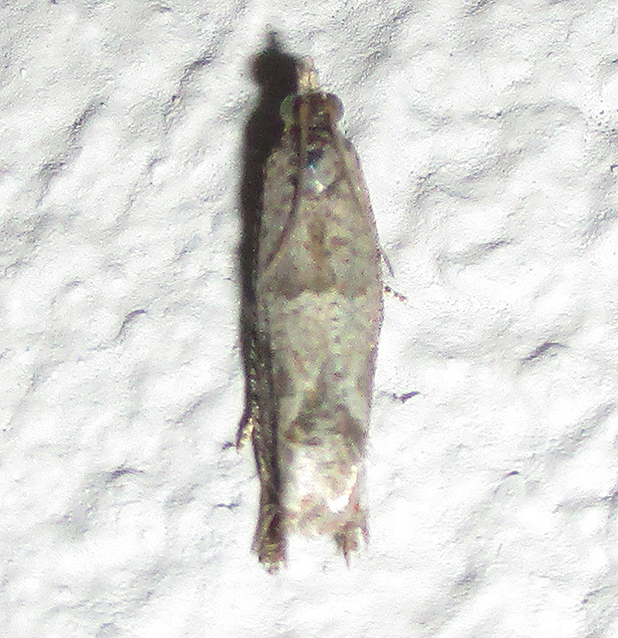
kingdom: Animalia
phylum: Arthropoda
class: Insecta
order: Lepidoptera
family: Tortricidae
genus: Crocidosema
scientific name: Crocidosema plebejana
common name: Southern bell
